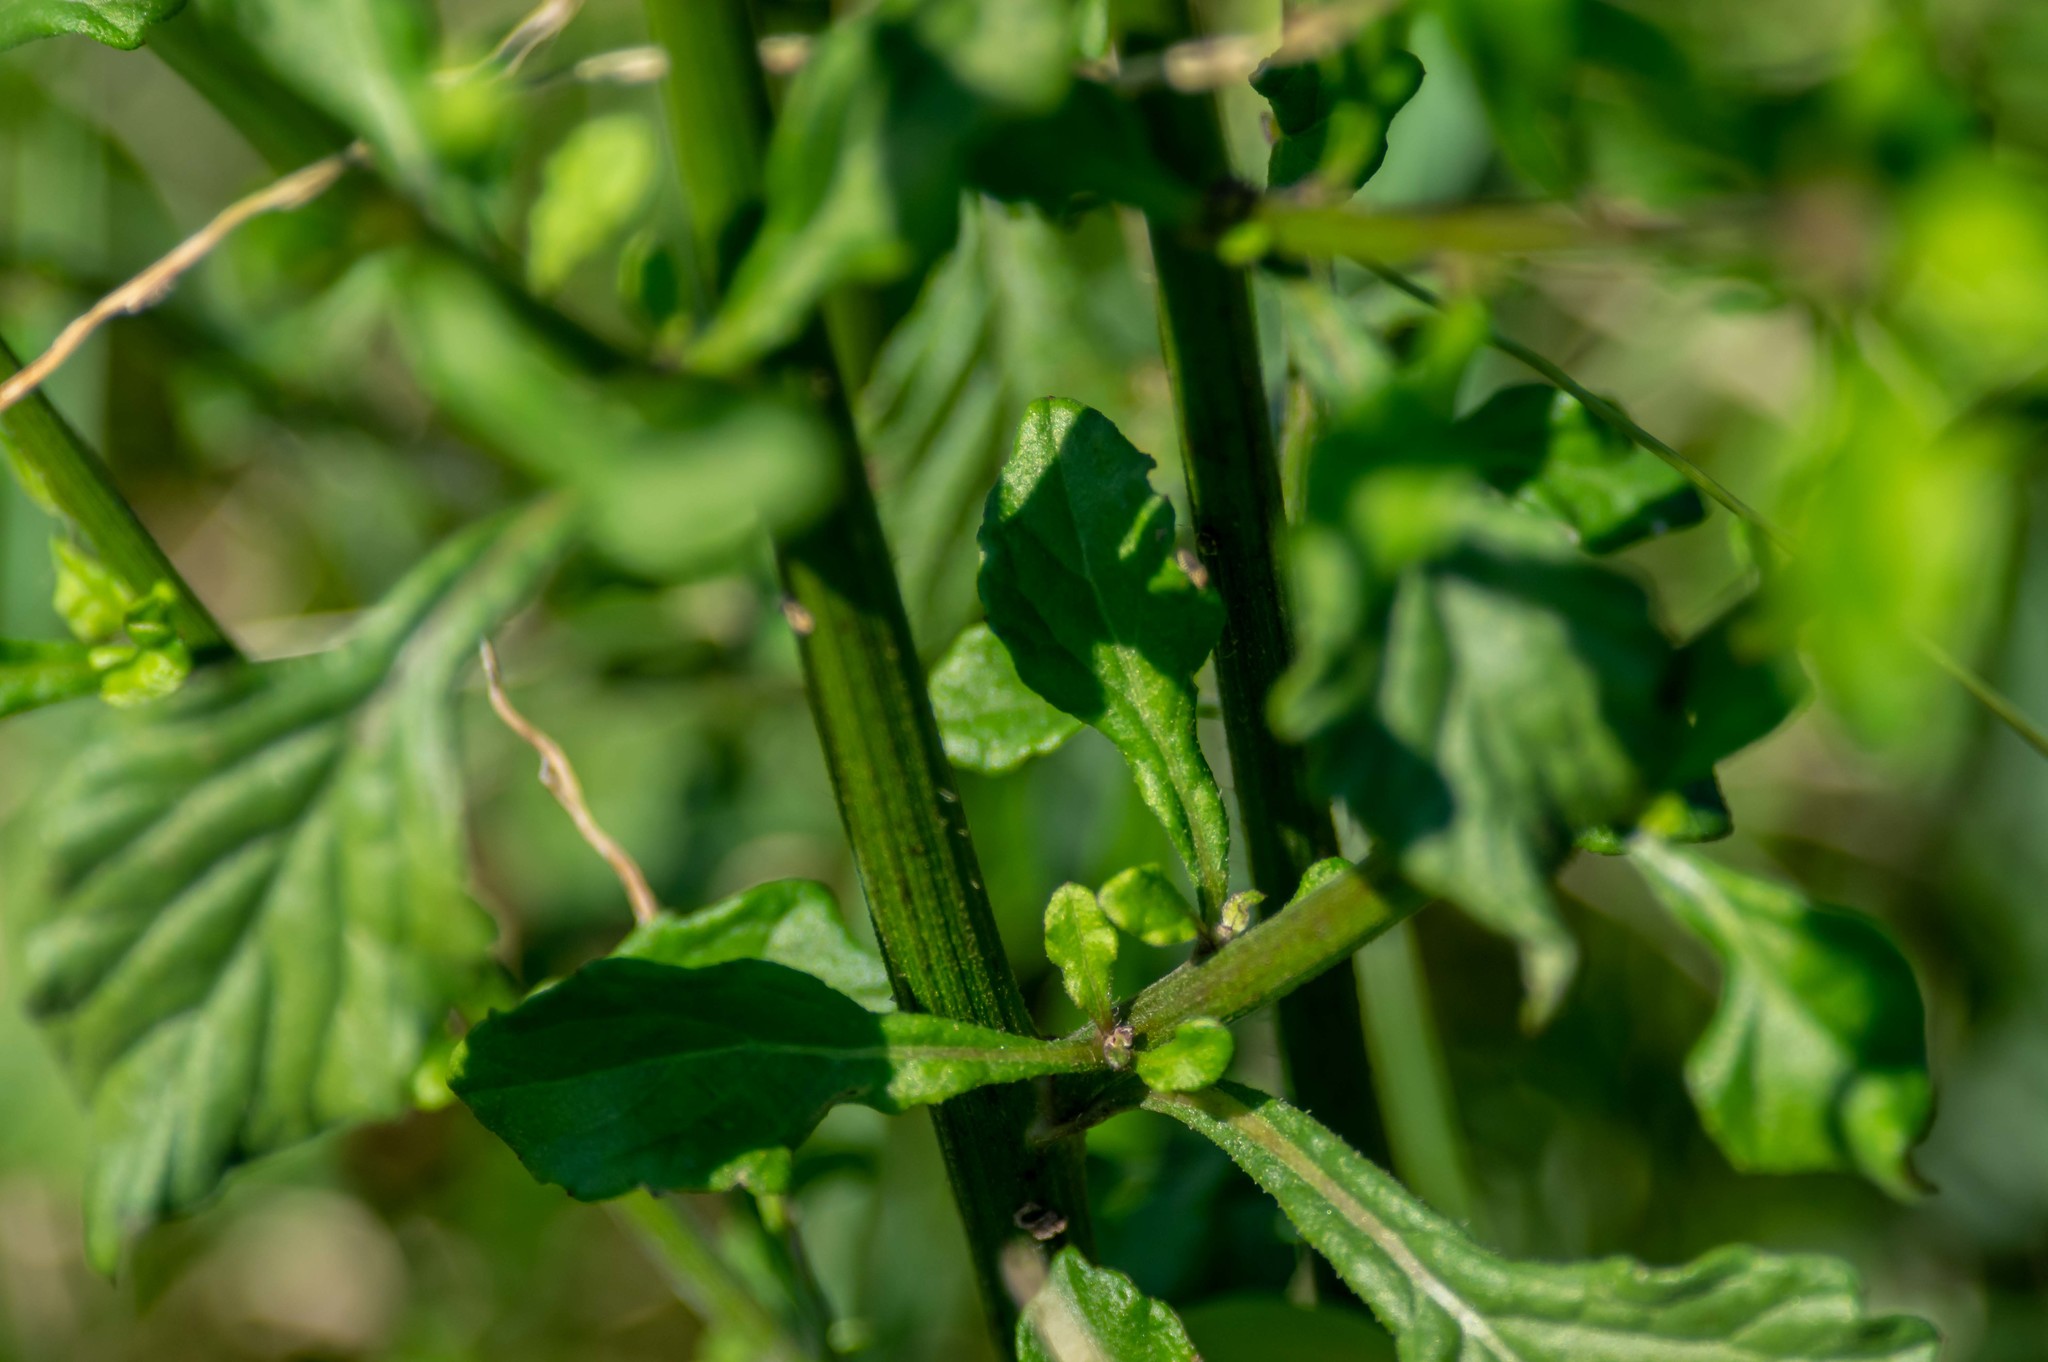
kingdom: Plantae
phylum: Tracheophyta
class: Magnoliopsida
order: Asterales
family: Asteraceae
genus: Cyanthillium
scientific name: Cyanthillium cinereum
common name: Little ironweed
